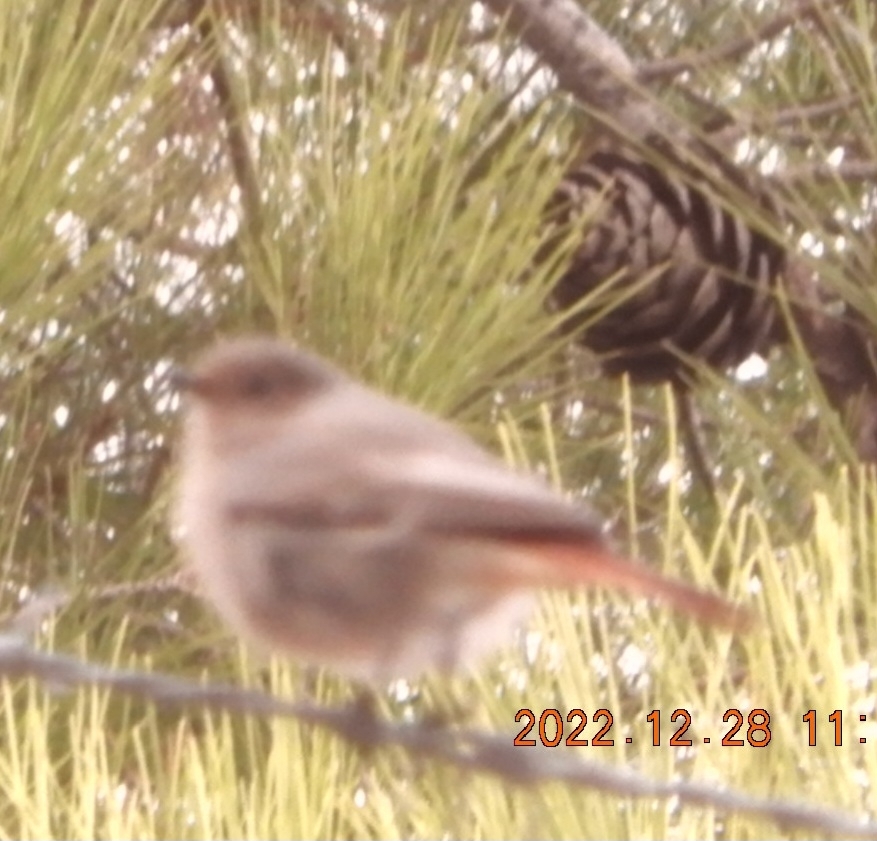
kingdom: Animalia
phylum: Chordata
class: Aves
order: Passeriformes
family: Muscicapidae
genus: Phoenicurus
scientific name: Phoenicurus ochruros
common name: Black redstart
